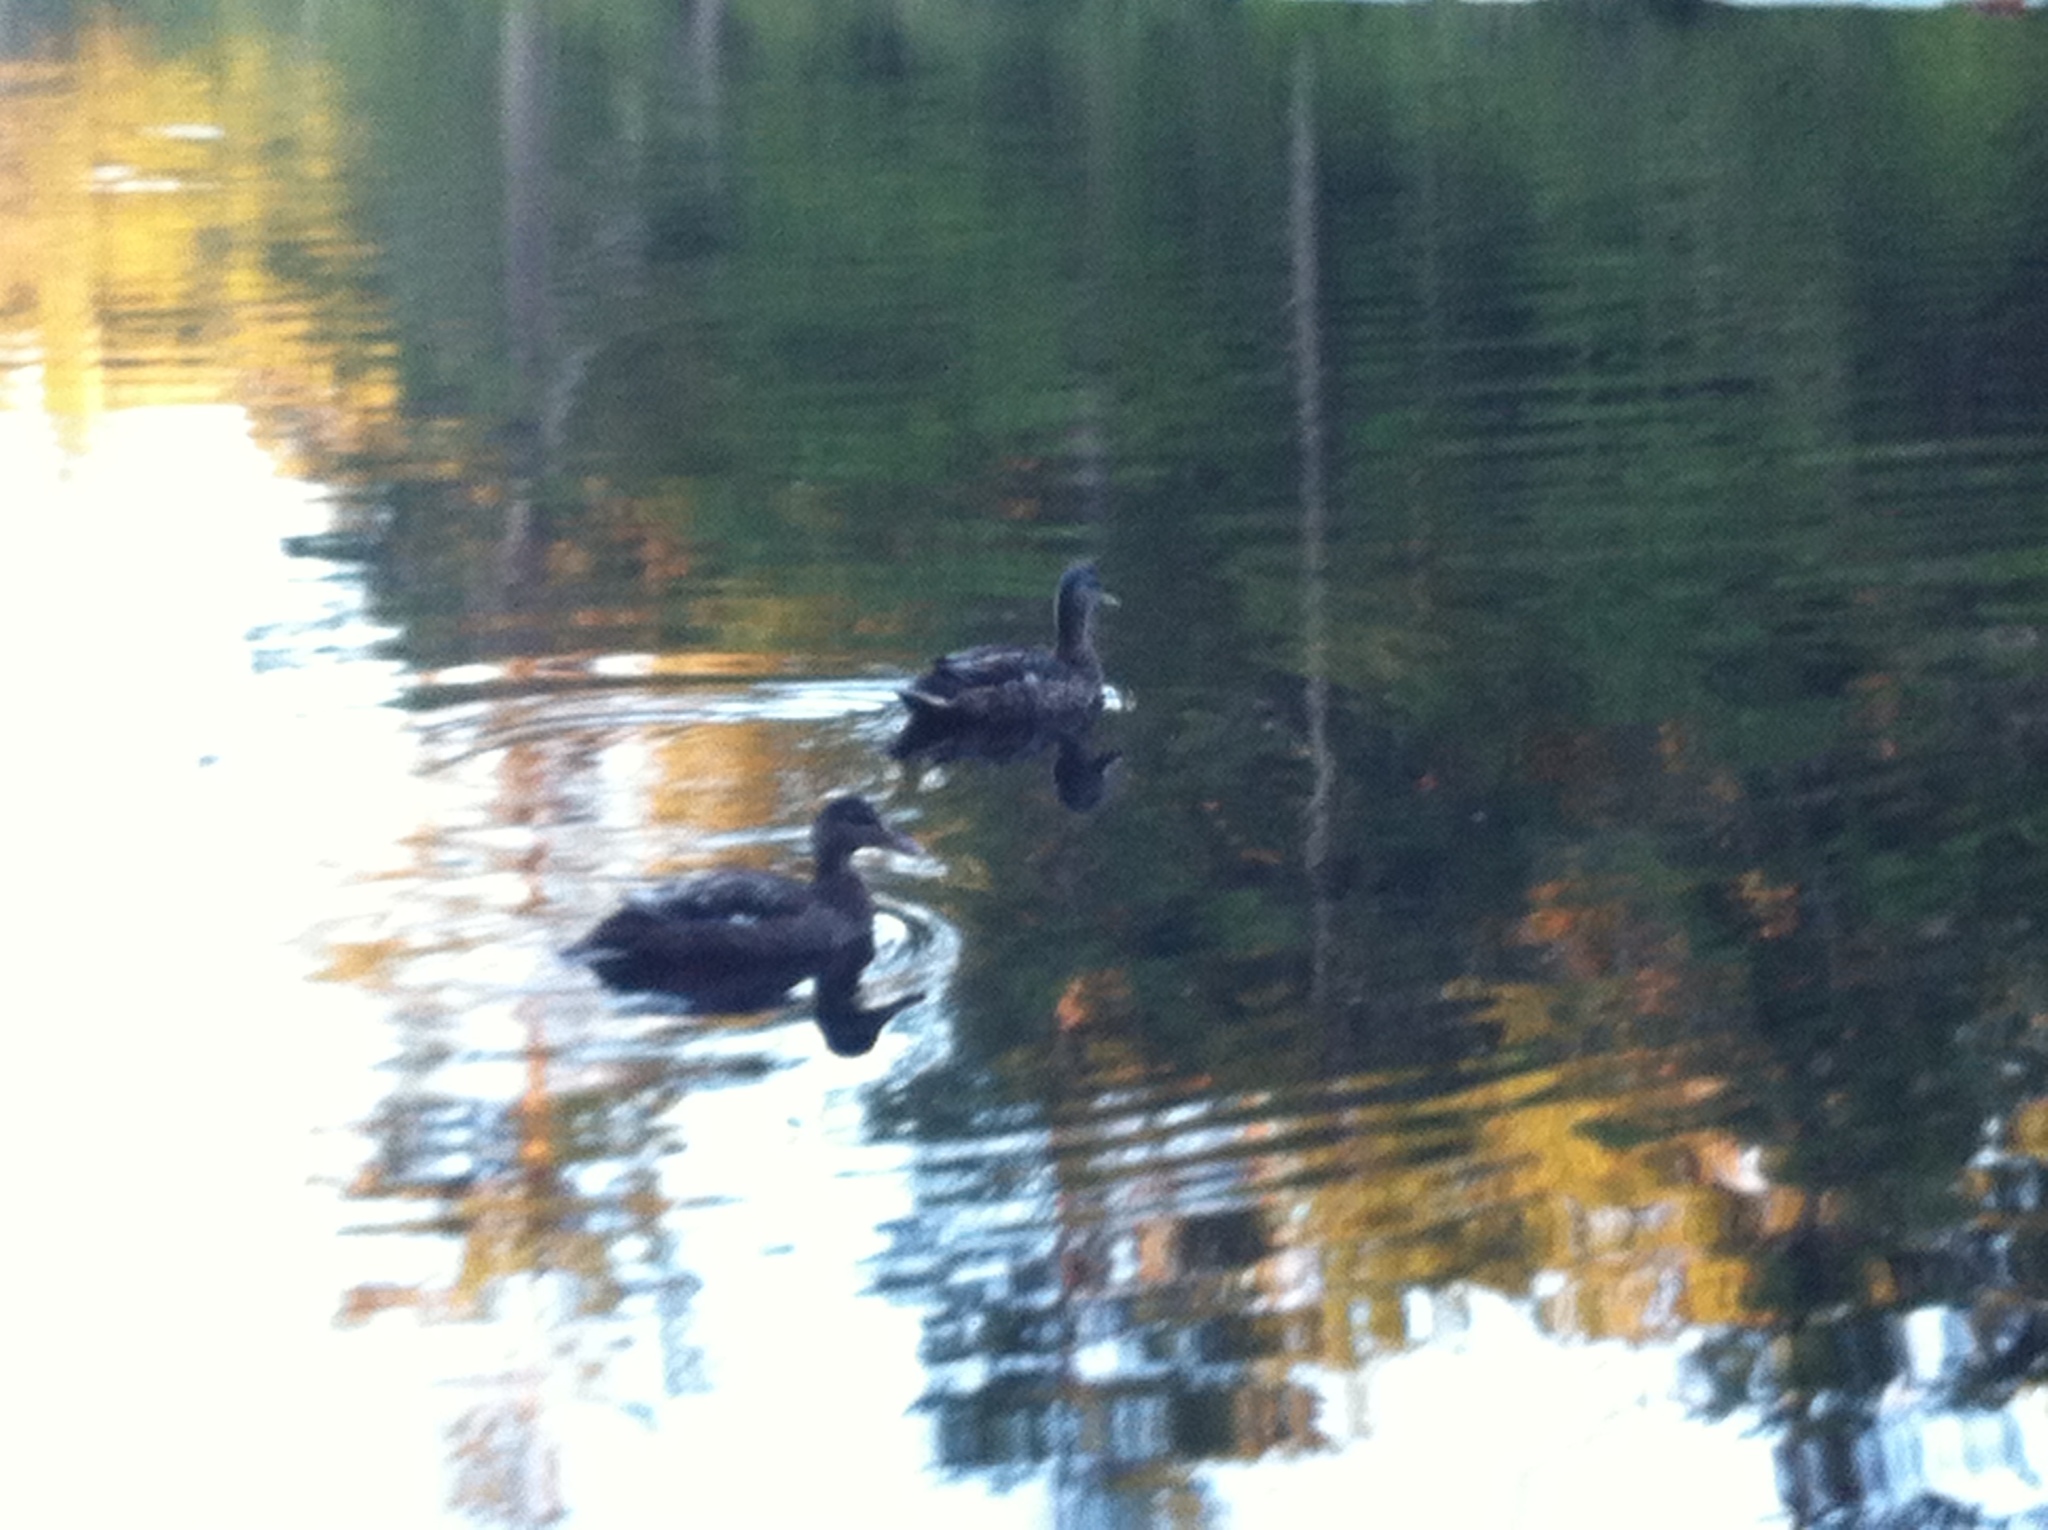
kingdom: Animalia
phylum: Chordata
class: Aves
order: Anseriformes
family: Anatidae
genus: Anas
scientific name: Anas platyrhynchos
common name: Mallard
